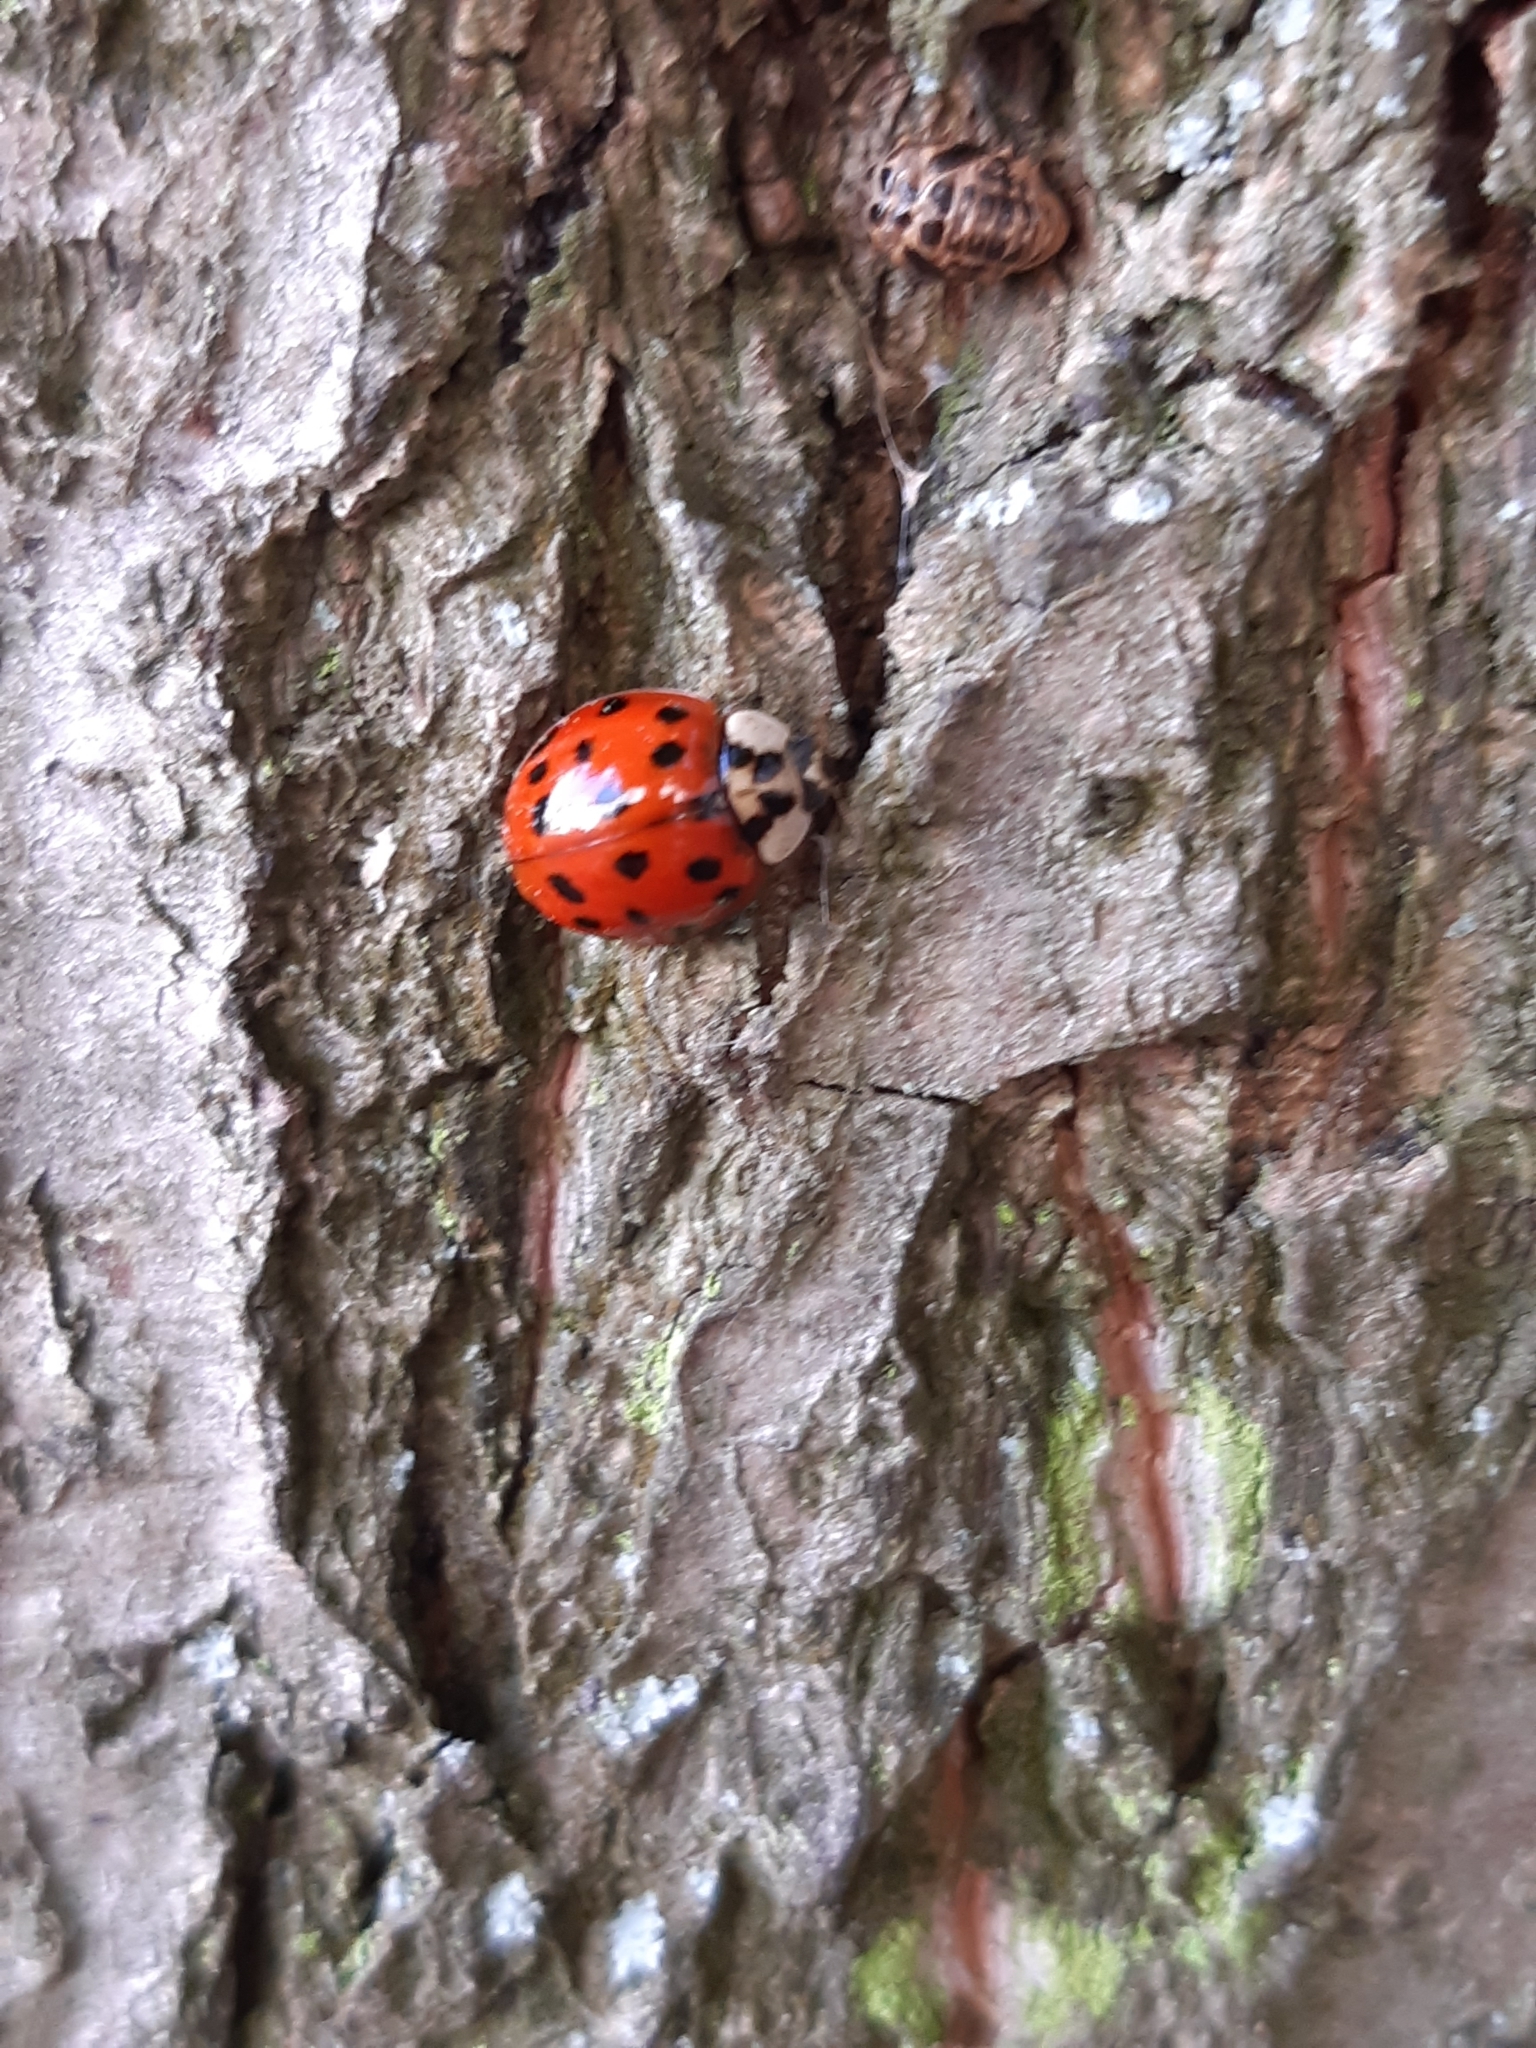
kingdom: Animalia
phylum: Arthropoda
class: Insecta
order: Coleoptera
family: Coccinellidae
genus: Harmonia
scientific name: Harmonia axyridis
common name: Harlequin ladybird
